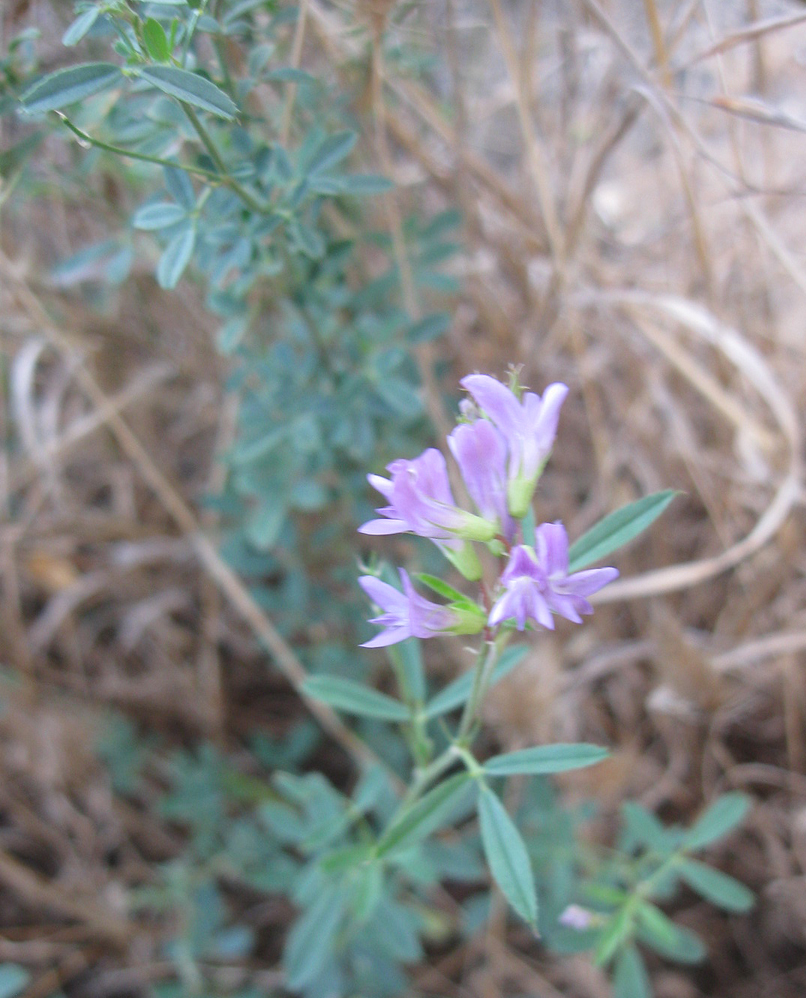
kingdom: Plantae
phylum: Tracheophyta
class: Magnoliopsida
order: Fabales
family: Fabaceae
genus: Medicago
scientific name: Medicago sativa
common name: Alfalfa
